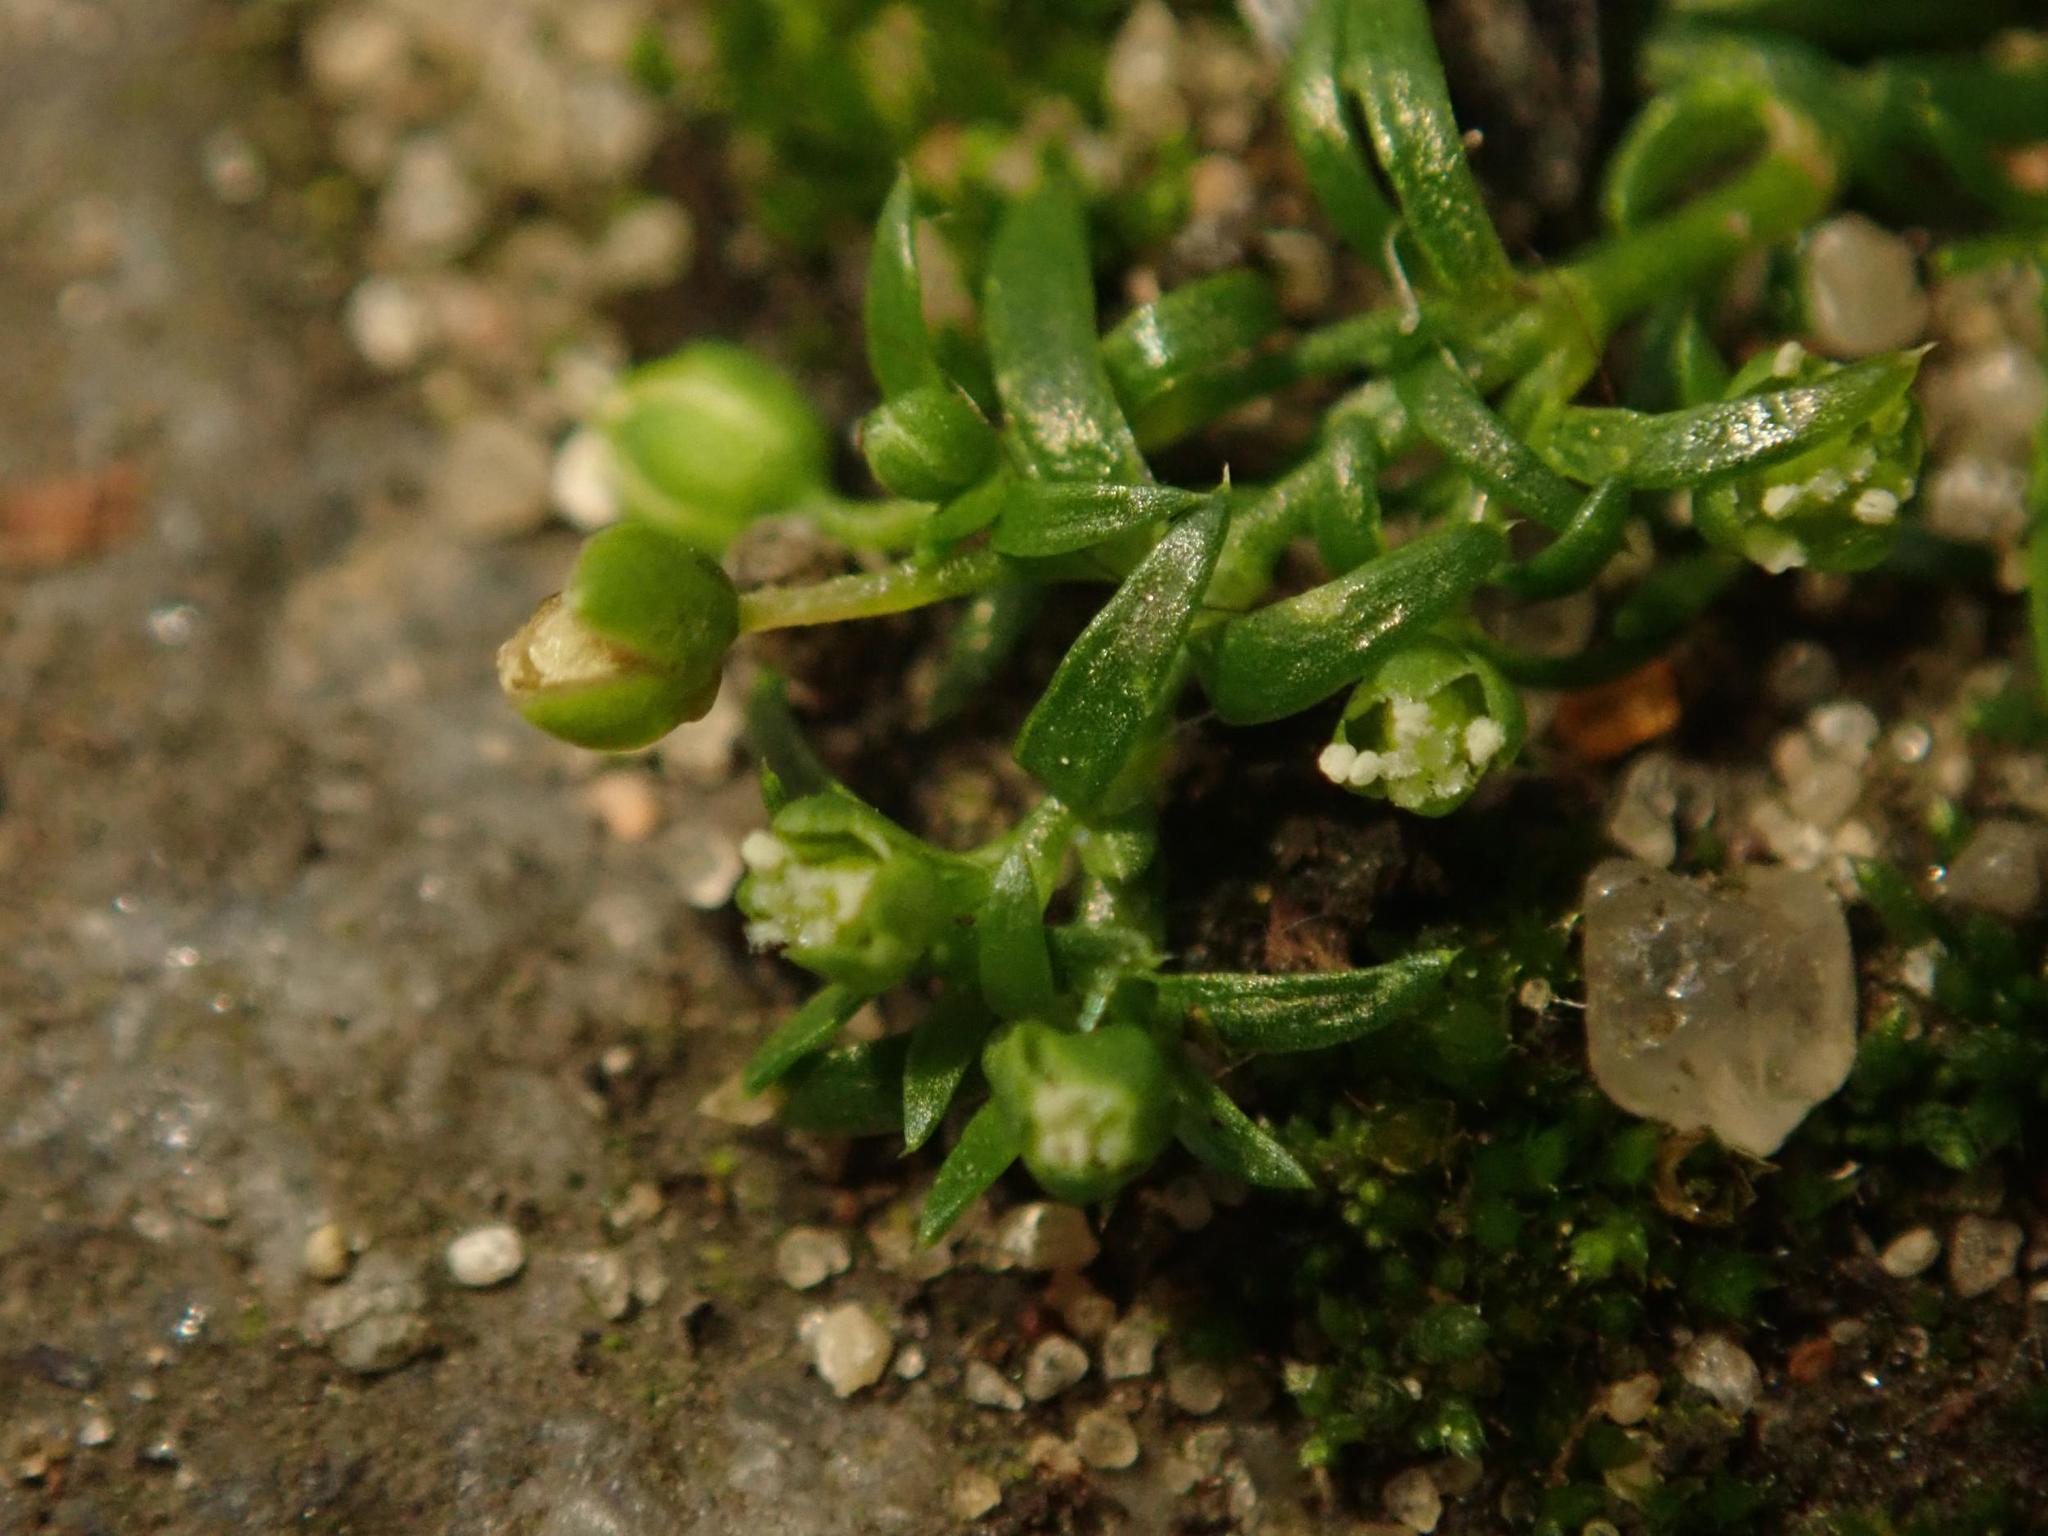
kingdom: Plantae
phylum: Tracheophyta
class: Magnoliopsida
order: Caryophyllales
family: Caryophyllaceae
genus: Sagina
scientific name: Sagina procumbens
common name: Procumbent pearlwort
